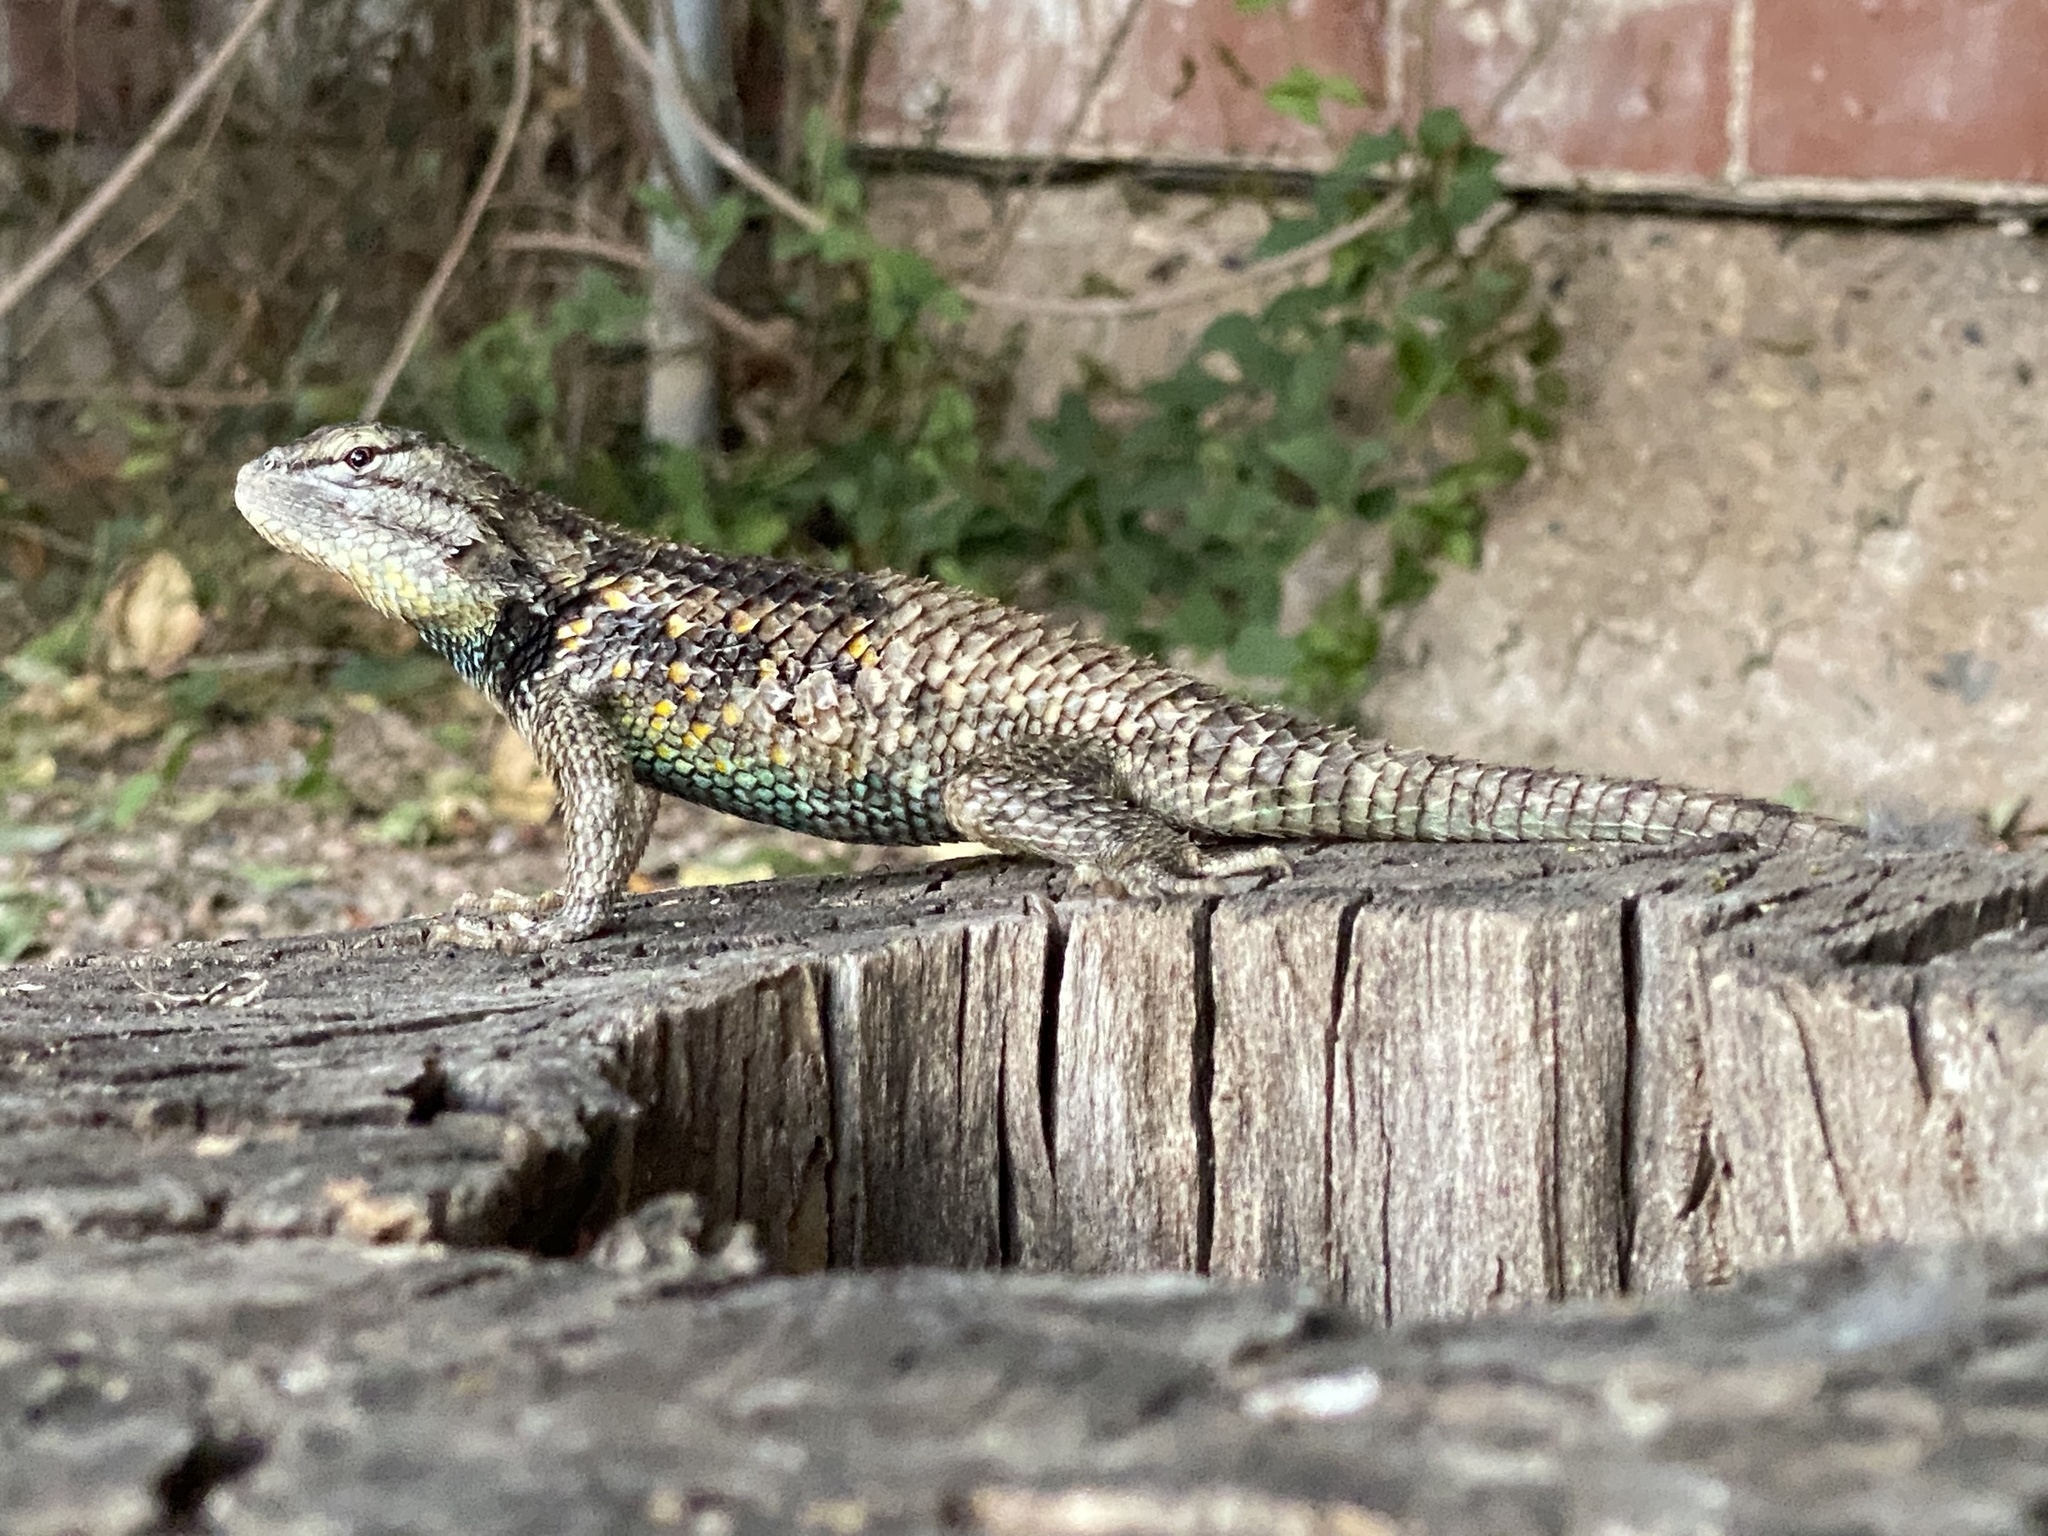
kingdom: Animalia
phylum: Chordata
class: Squamata
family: Phrynosomatidae
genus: Sceloporus
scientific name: Sceloporus magister
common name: Desert spiny lizard
